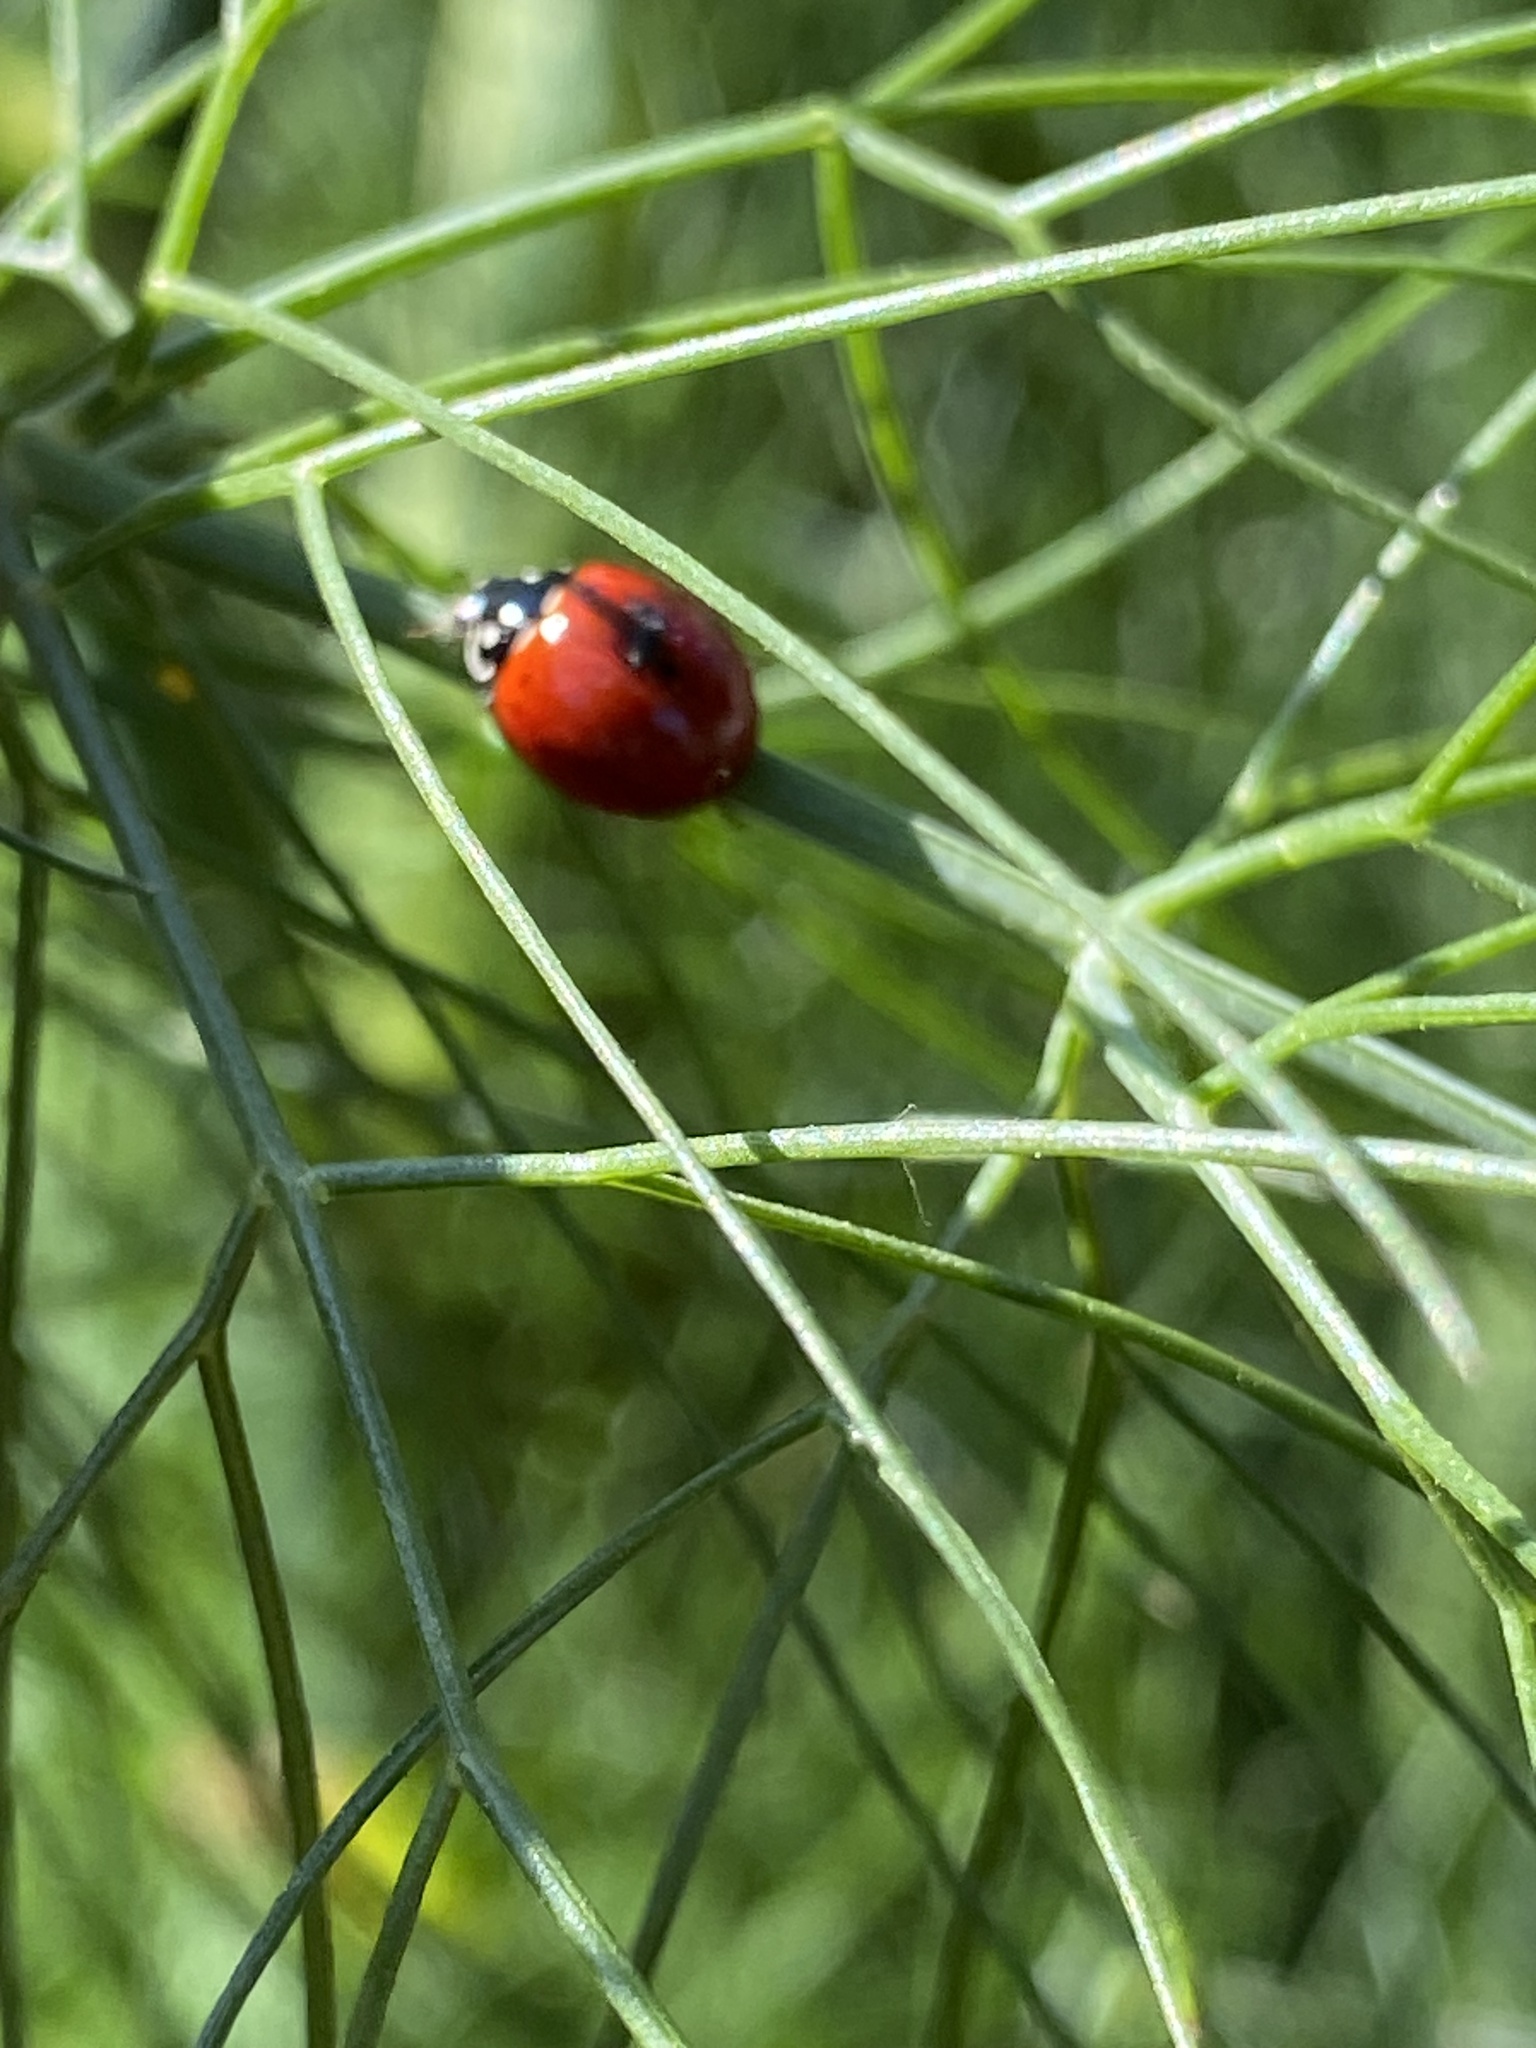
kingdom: Animalia
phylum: Arthropoda
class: Insecta
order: Coleoptera
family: Coccinellidae
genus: Cycloneda
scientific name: Cycloneda sanguinea
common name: Ladybird beetle
